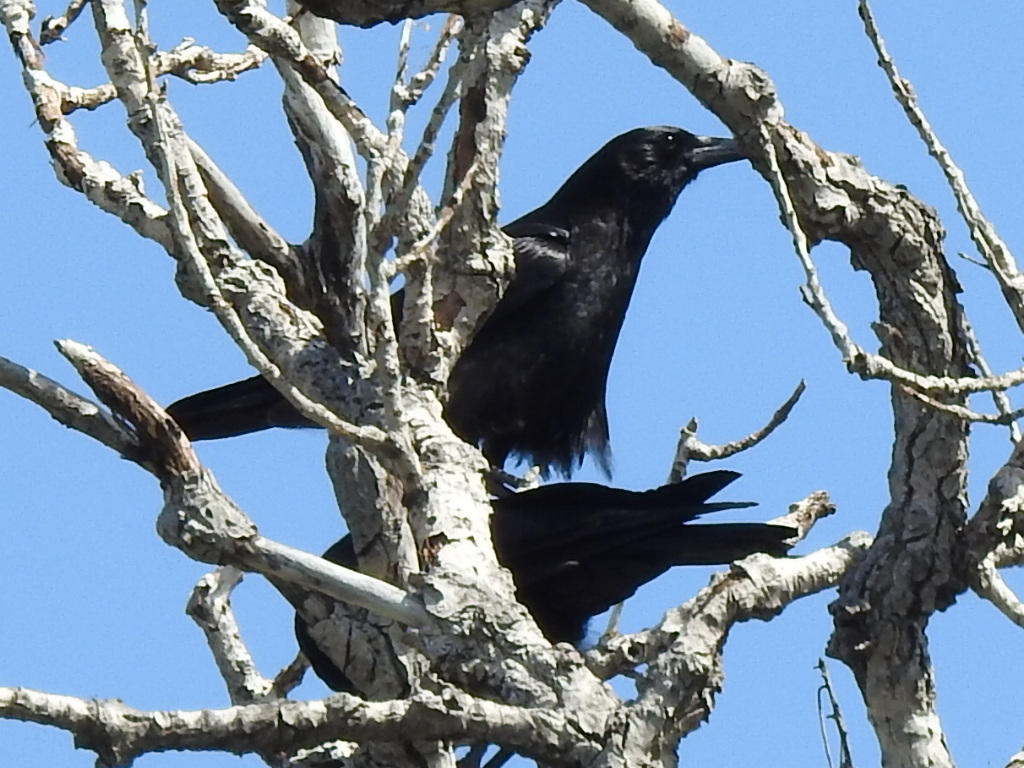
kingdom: Animalia
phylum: Chordata
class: Aves
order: Passeriformes
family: Corvidae
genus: Corvus
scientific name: Corvus brachyrhynchos
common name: American crow
